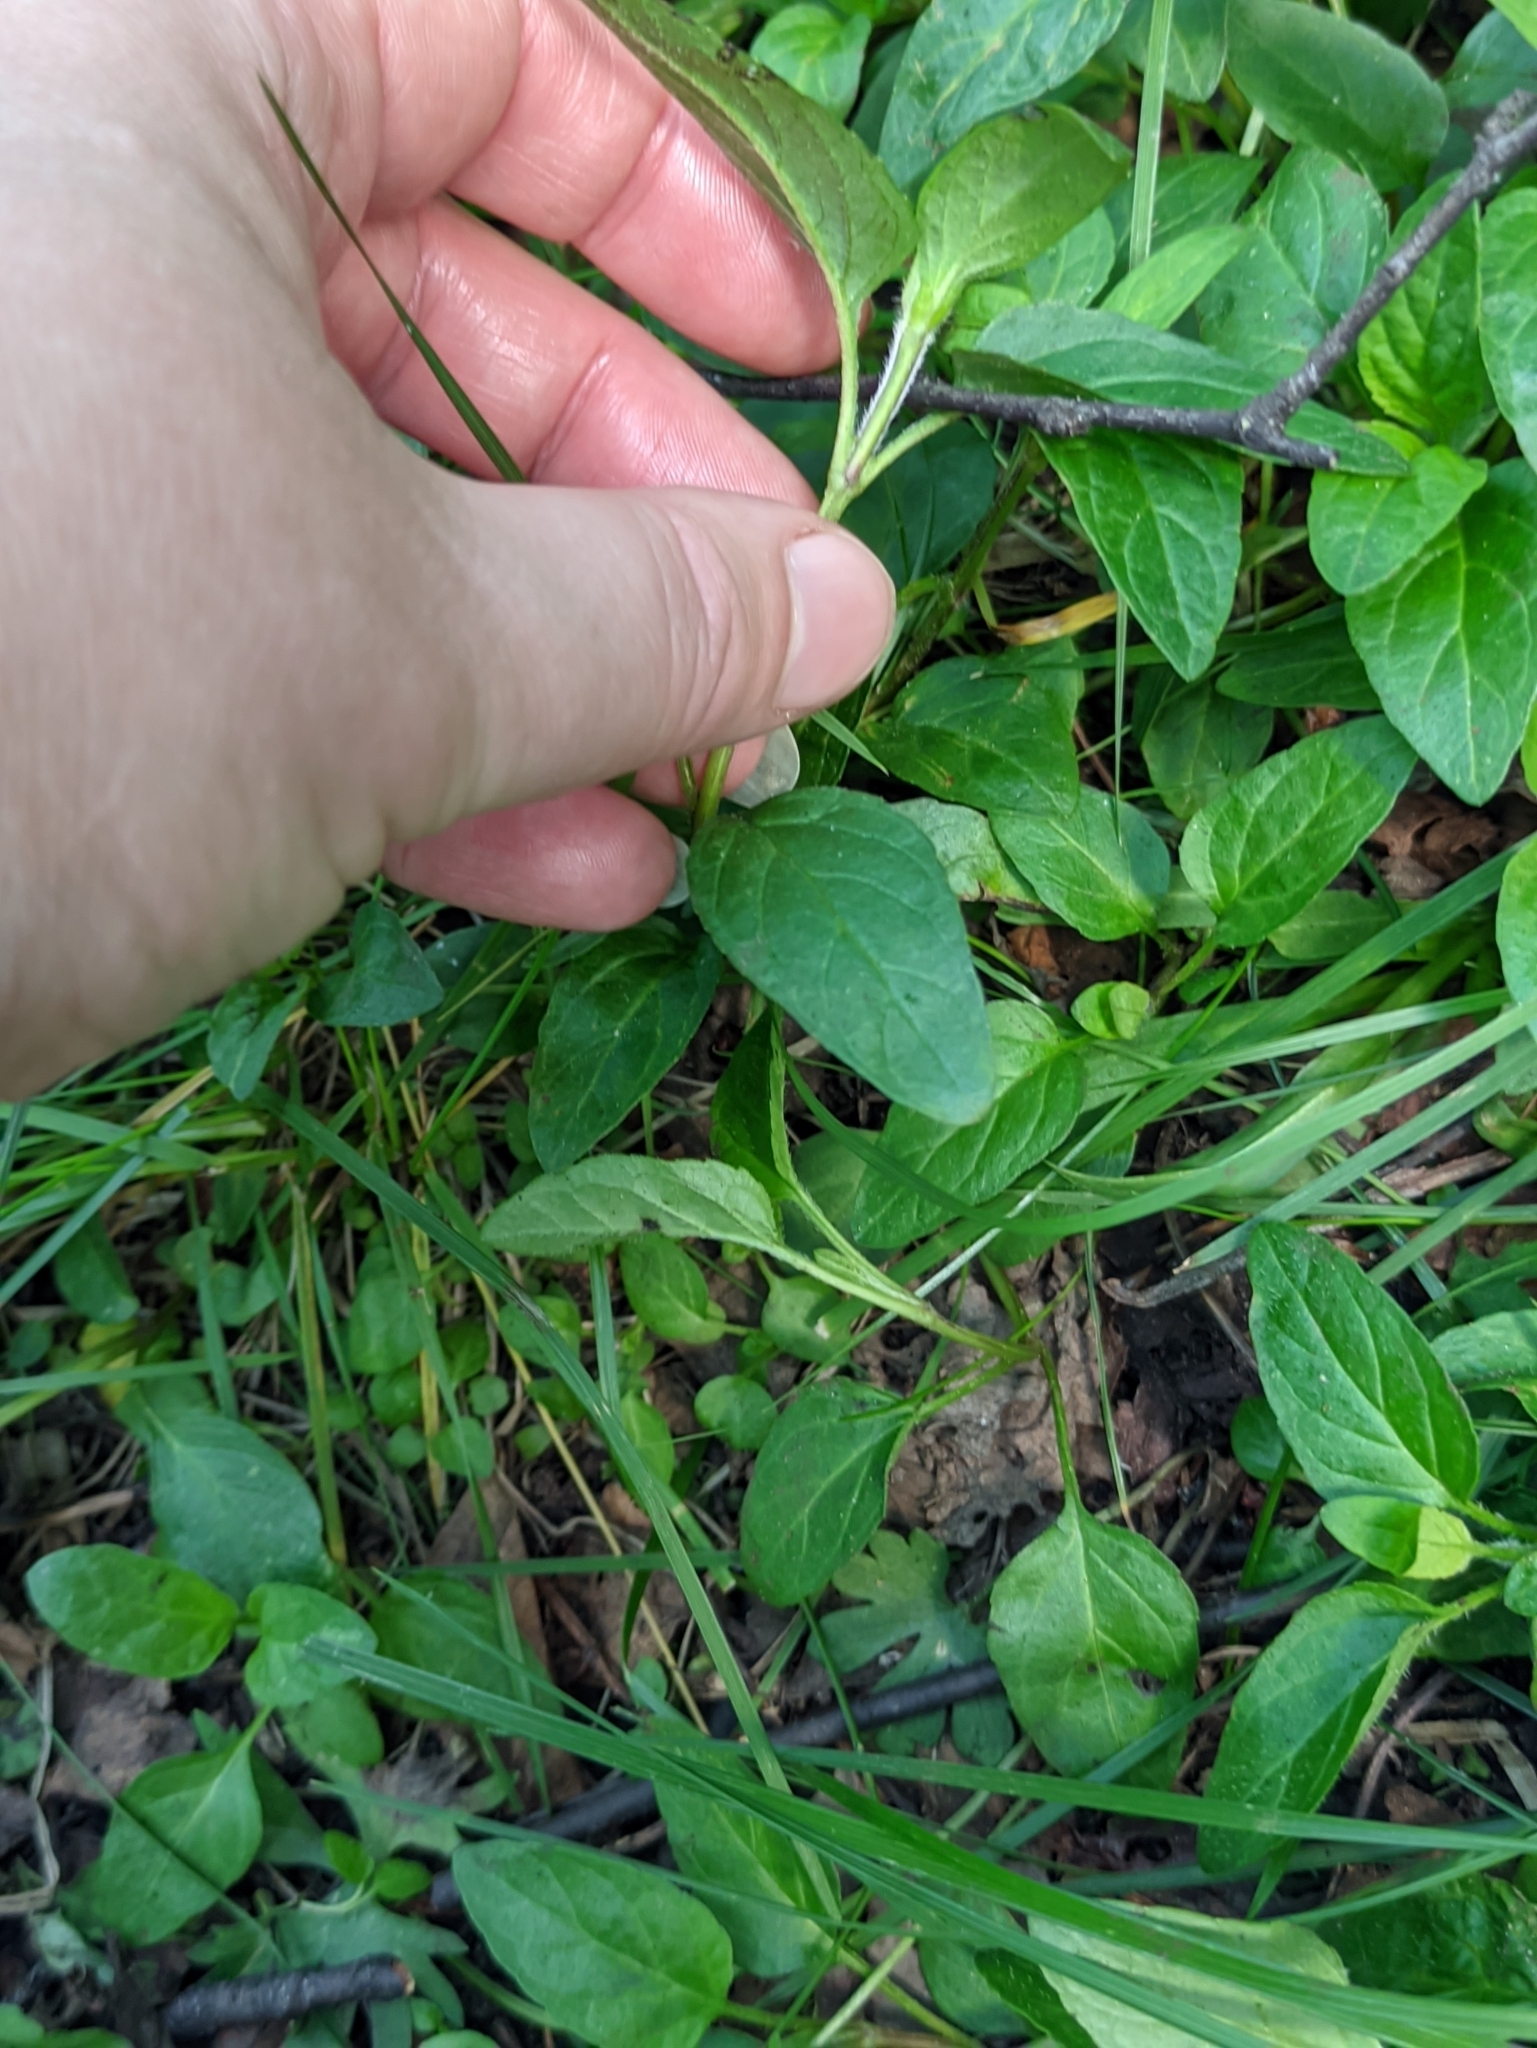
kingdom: Plantae
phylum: Tracheophyta
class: Magnoliopsida
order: Lamiales
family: Lamiaceae
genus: Prunella
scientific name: Prunella vulgaris
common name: Heal-all
